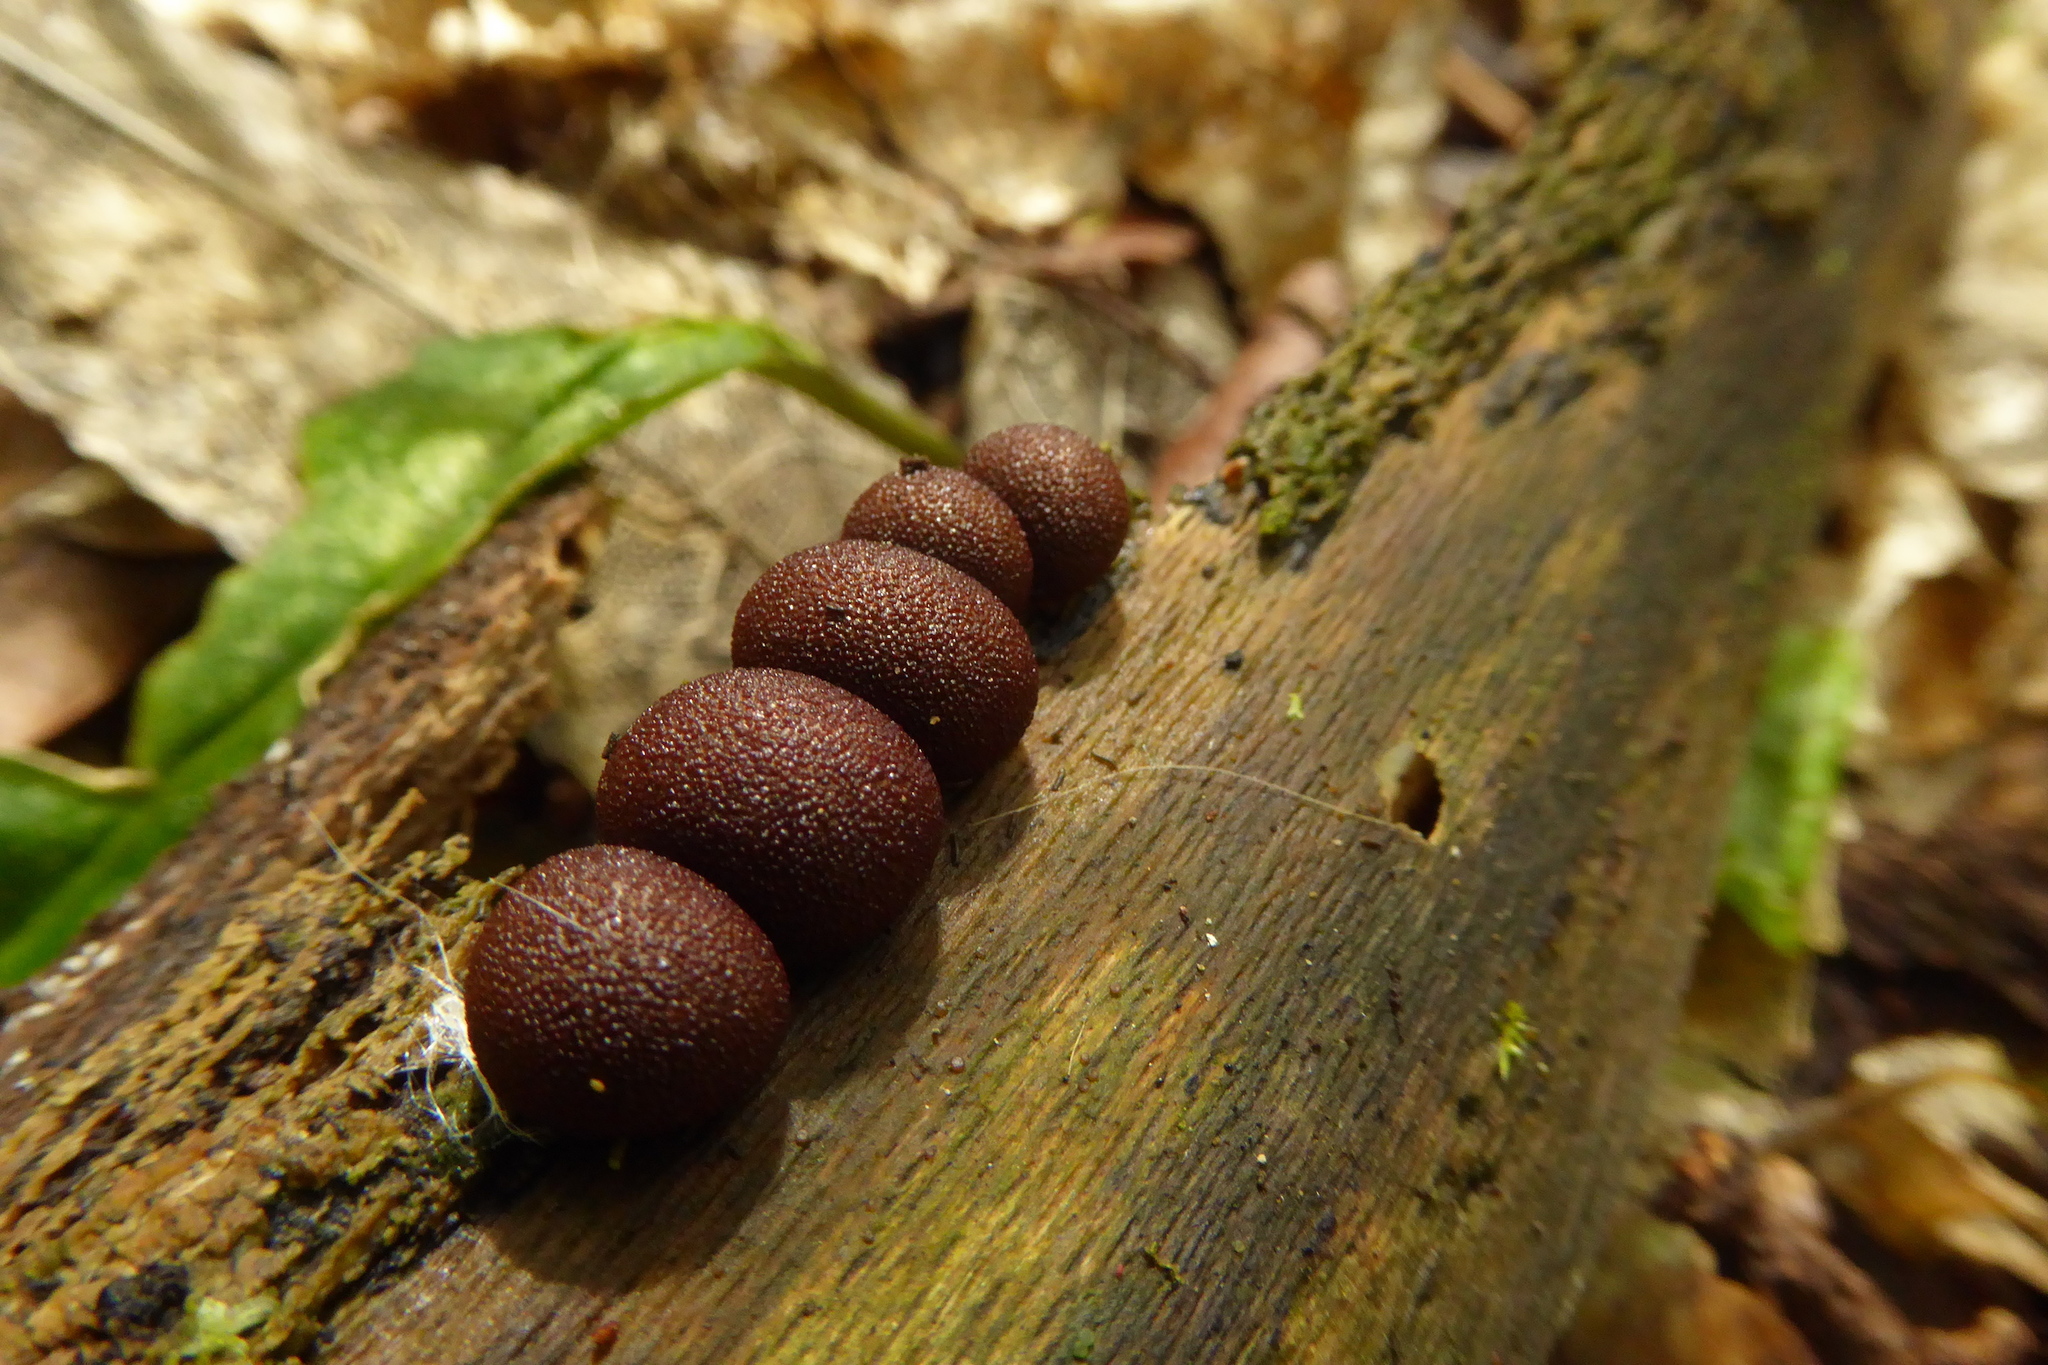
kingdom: Protozoa
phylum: Mycetozoa
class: Myxomycetes
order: Cribrariales
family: Tubiferaceae
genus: Lycogala
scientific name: Lycogala epidendrum
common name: Wolf's milk
